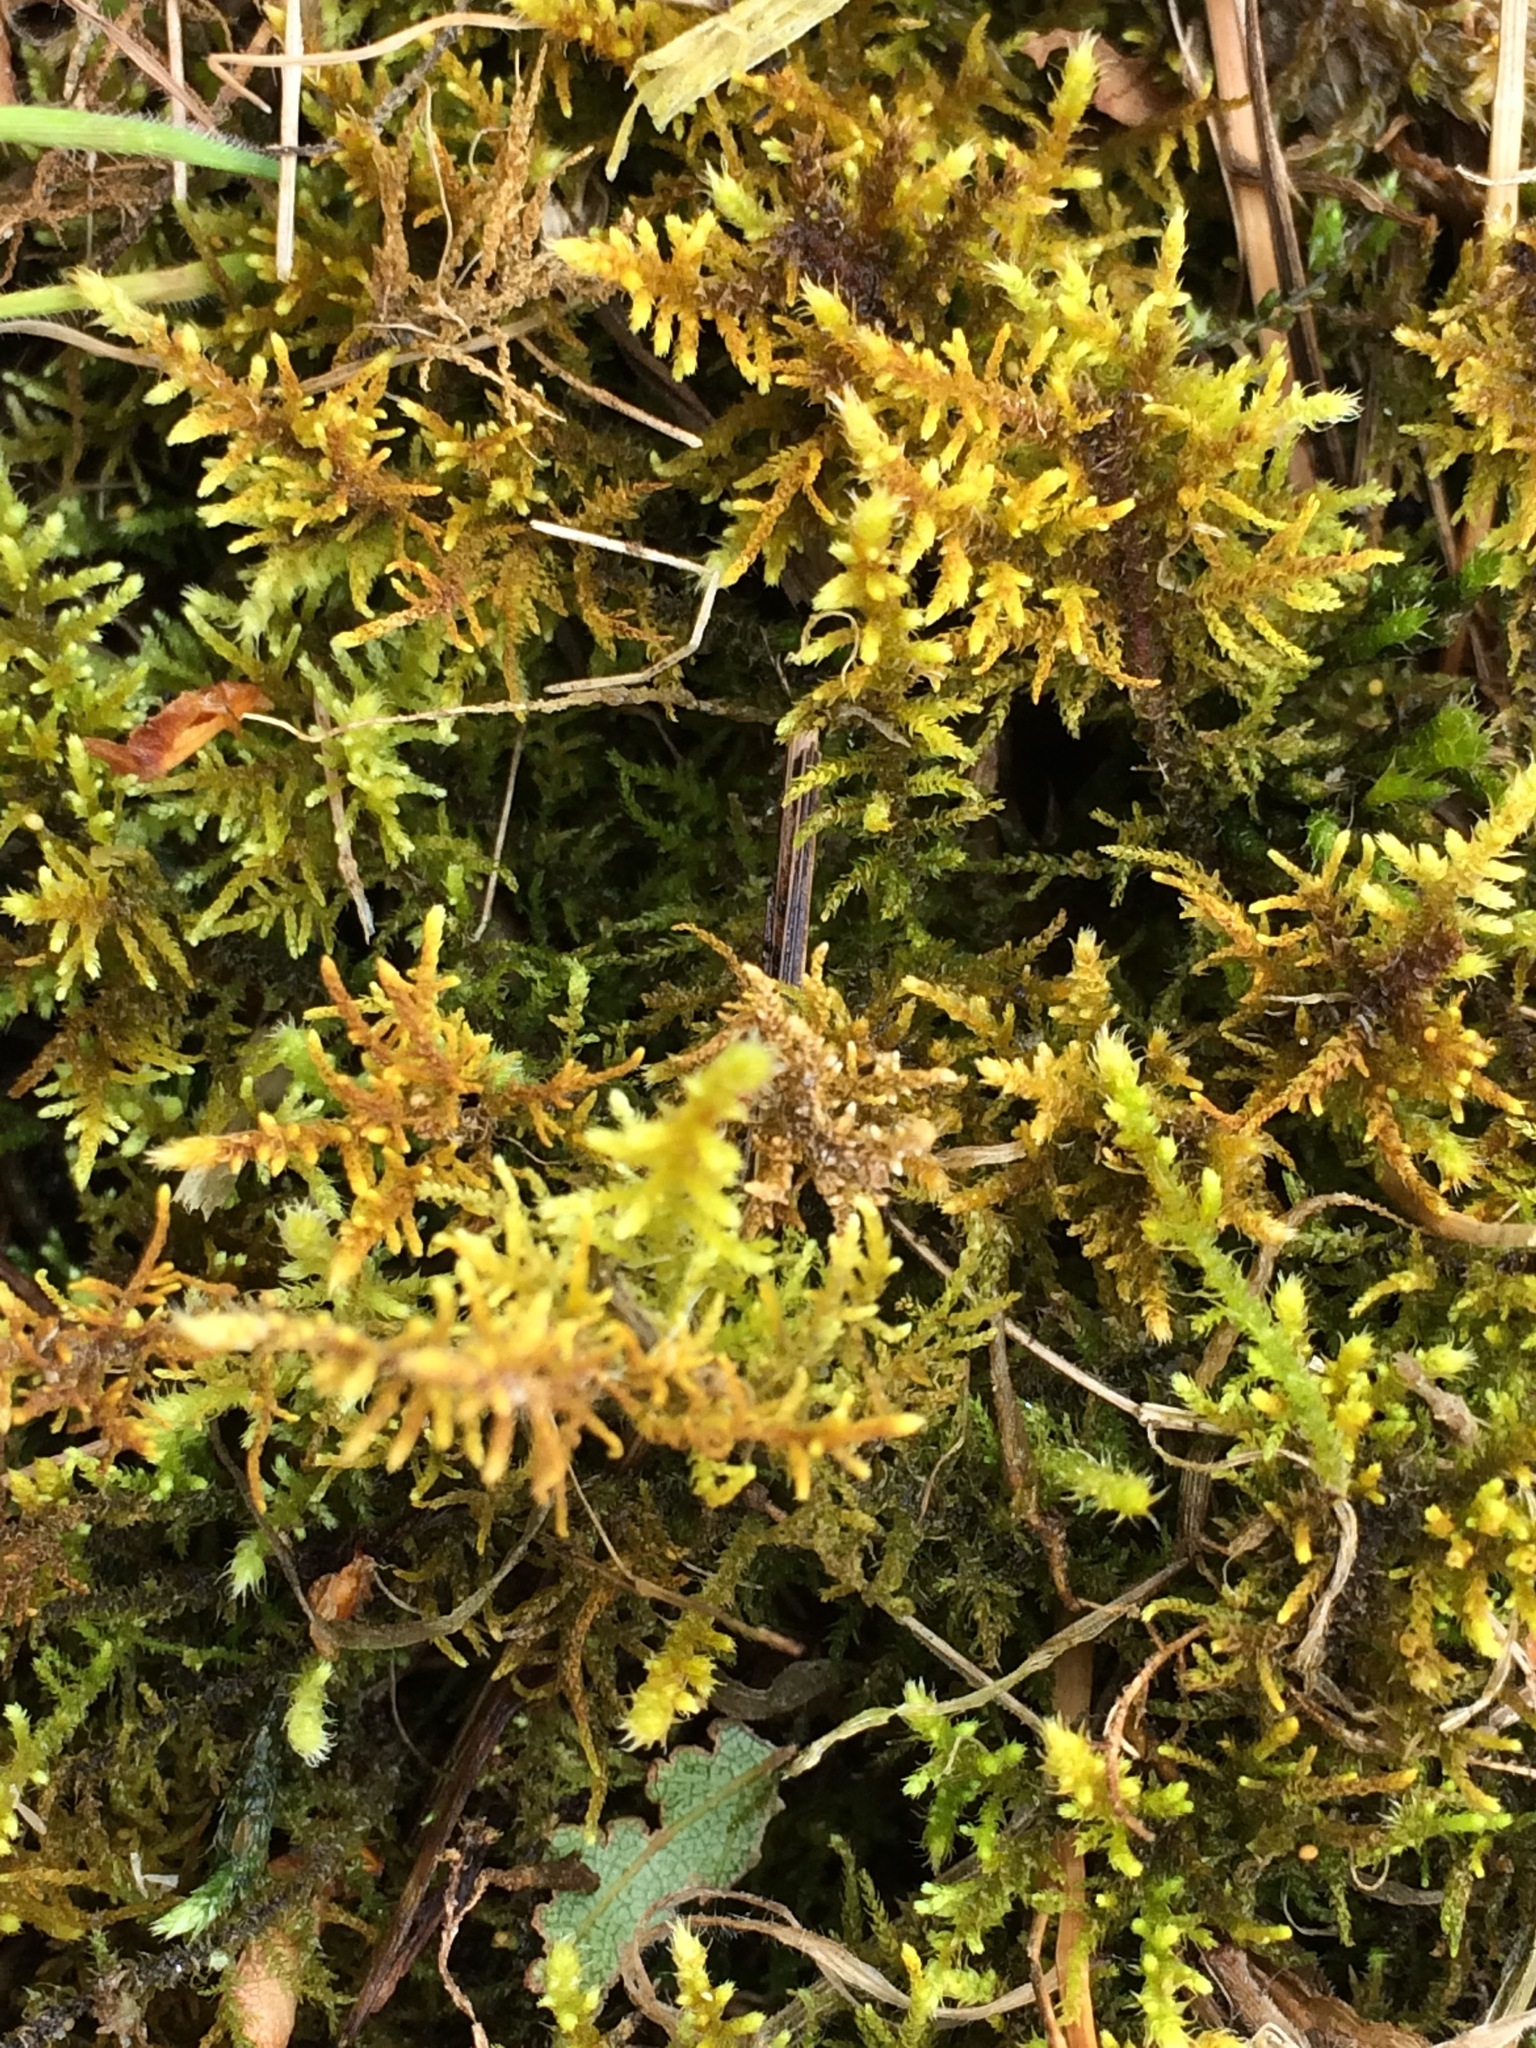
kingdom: Plantae
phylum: Bryophyta
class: Bryopsida
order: Hypnales
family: Thuidiaceae
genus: Thuidiopsis
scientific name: Thuidiopsis furfurosa
